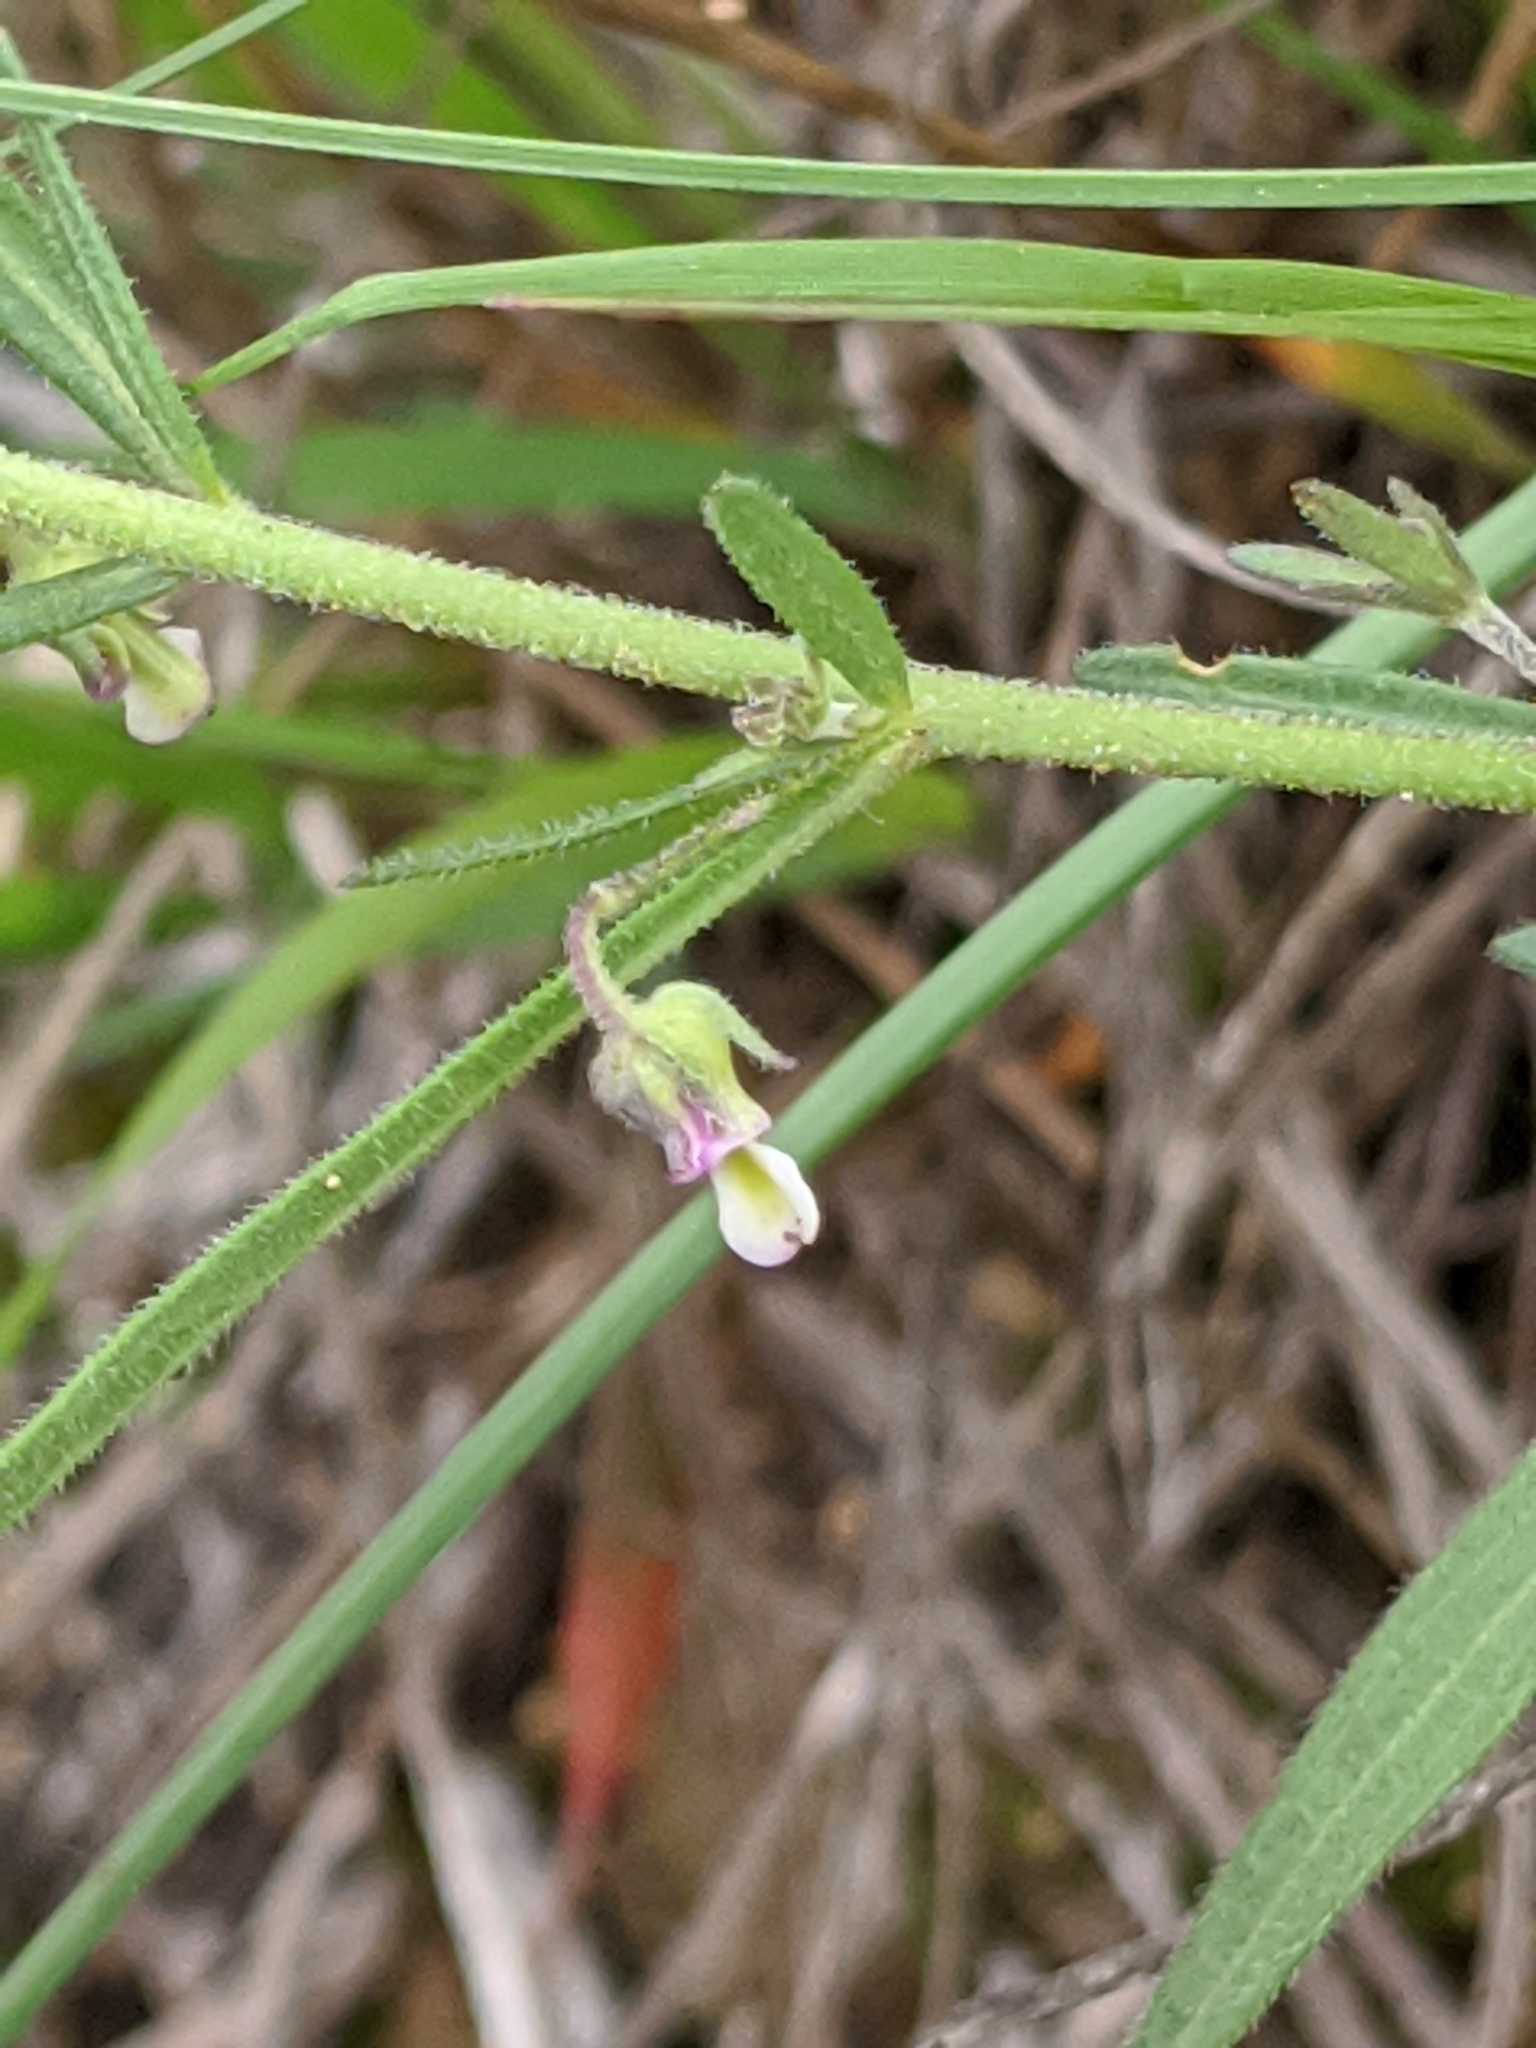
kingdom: Plantae
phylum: Tracheophyta
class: Magnoliopsida
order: Malpighiales
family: Violaceae
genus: Pombalia
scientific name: Pombalia verticillata
